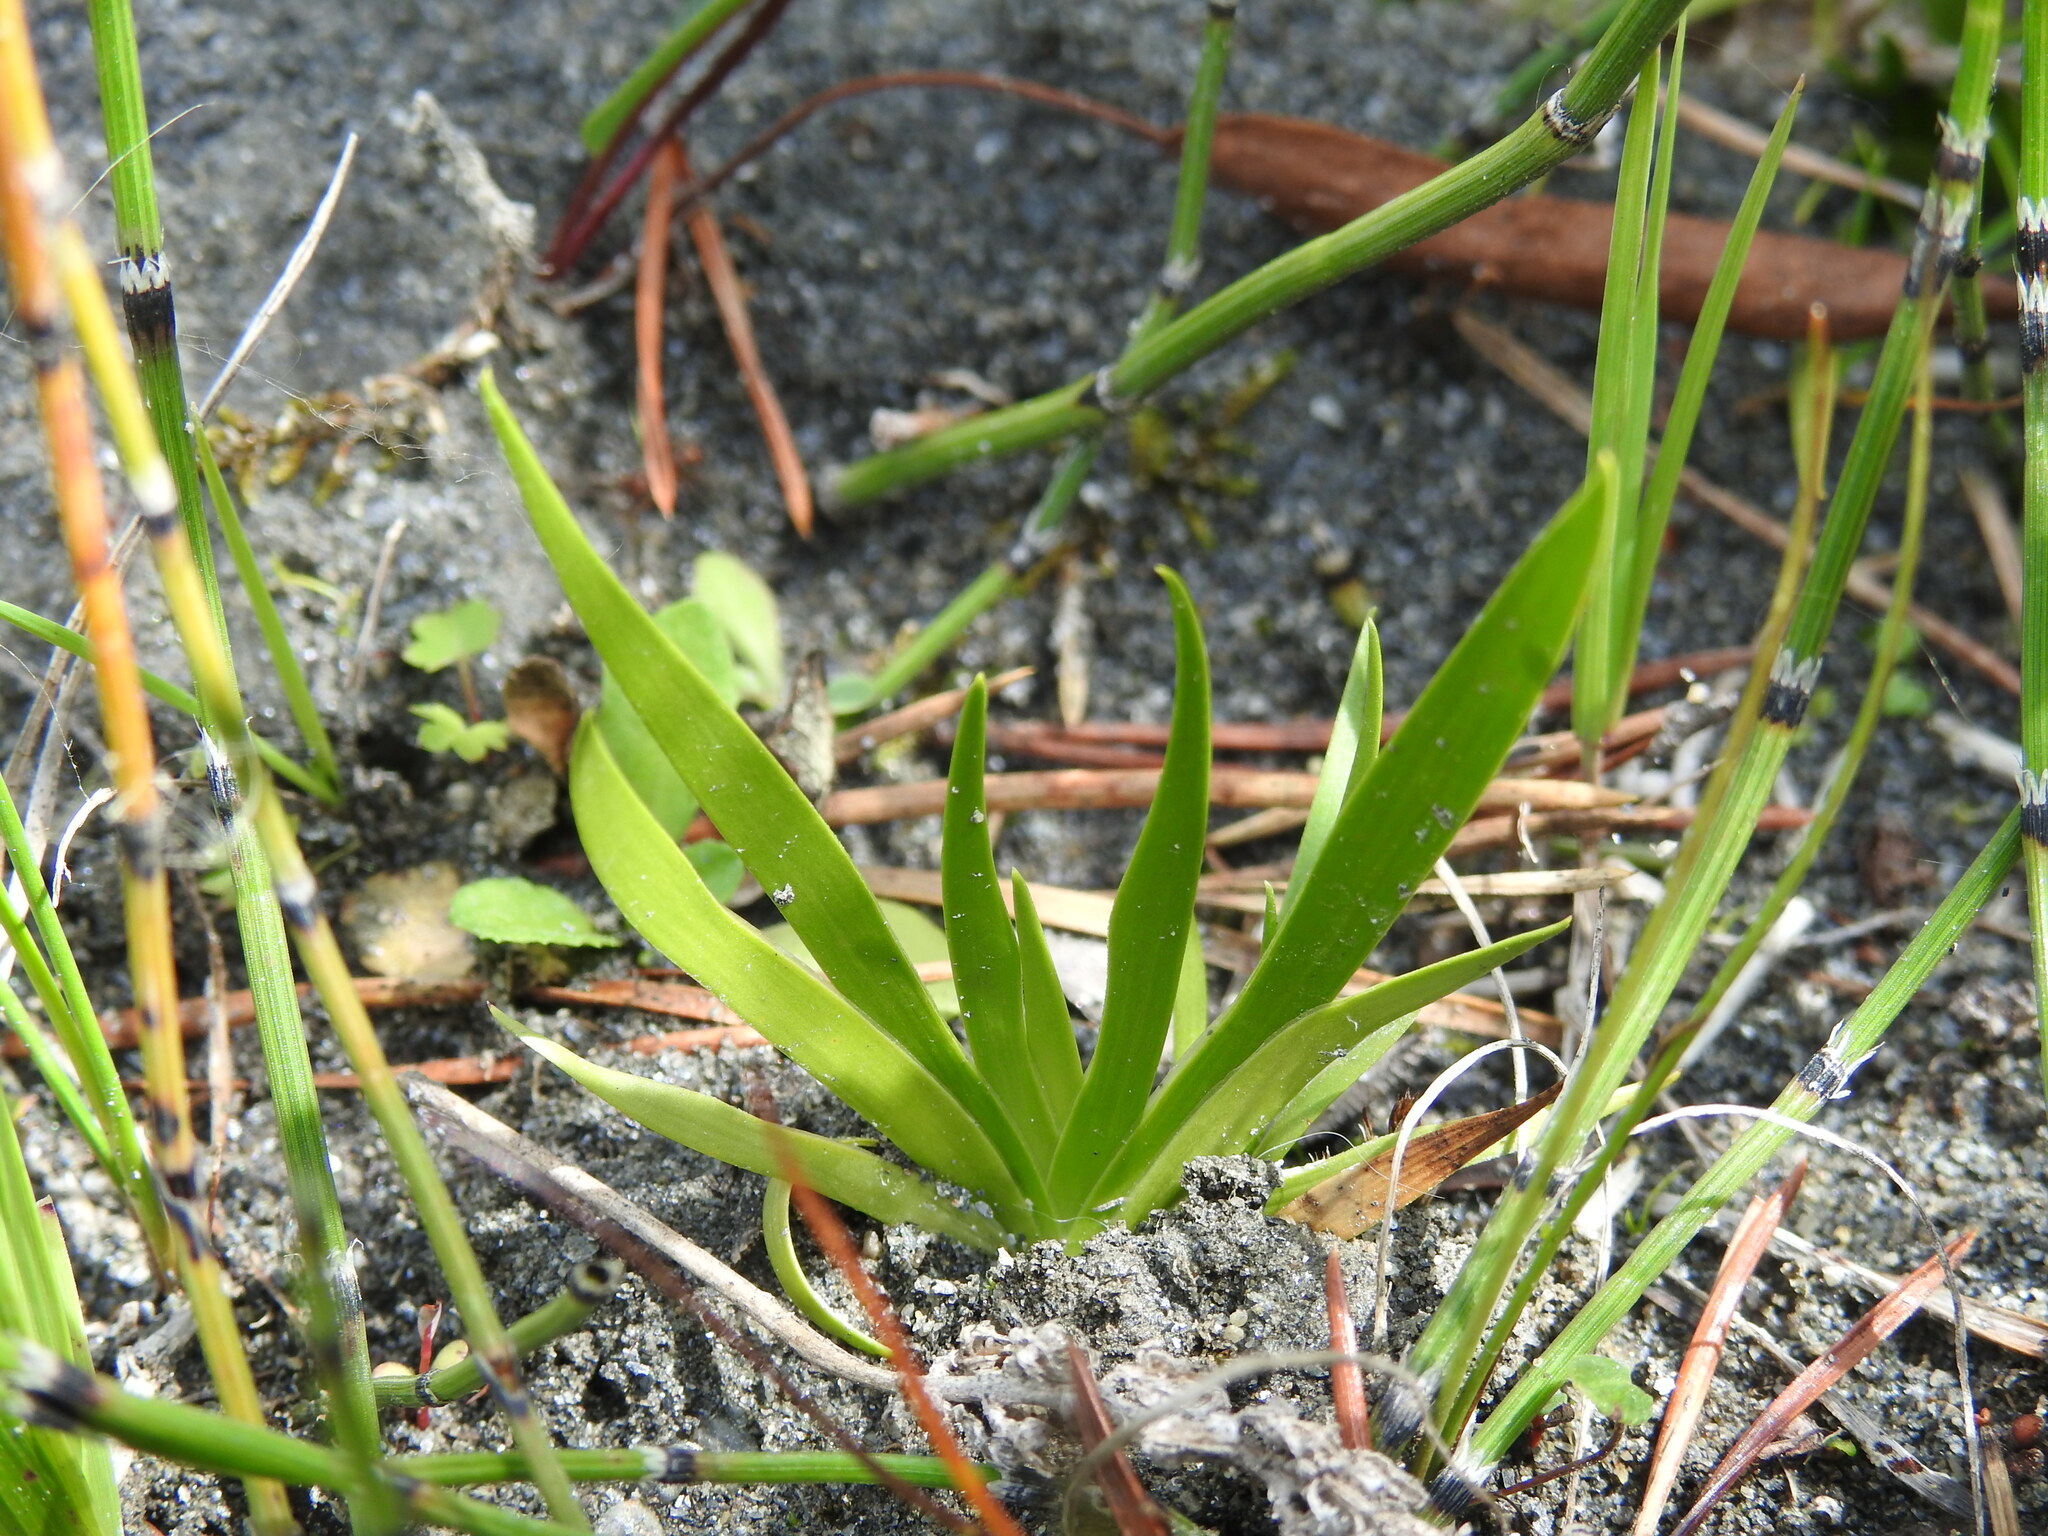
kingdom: Plantae
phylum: Tracheophyta
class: Liliopsida
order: Alismatales
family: Tofieldiaceae
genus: Tofieldia
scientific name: Tofieldia calyculata
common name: German-asphodel
